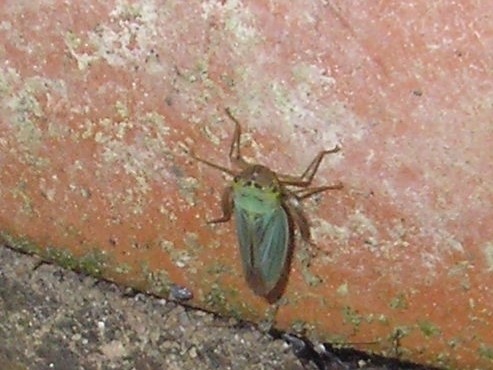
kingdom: Animalia
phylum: Arthropoda
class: Insecta
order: Hemiptera
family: Cicadellidae
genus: Cicadella
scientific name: Cicadella viridis
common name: Leafhopper
